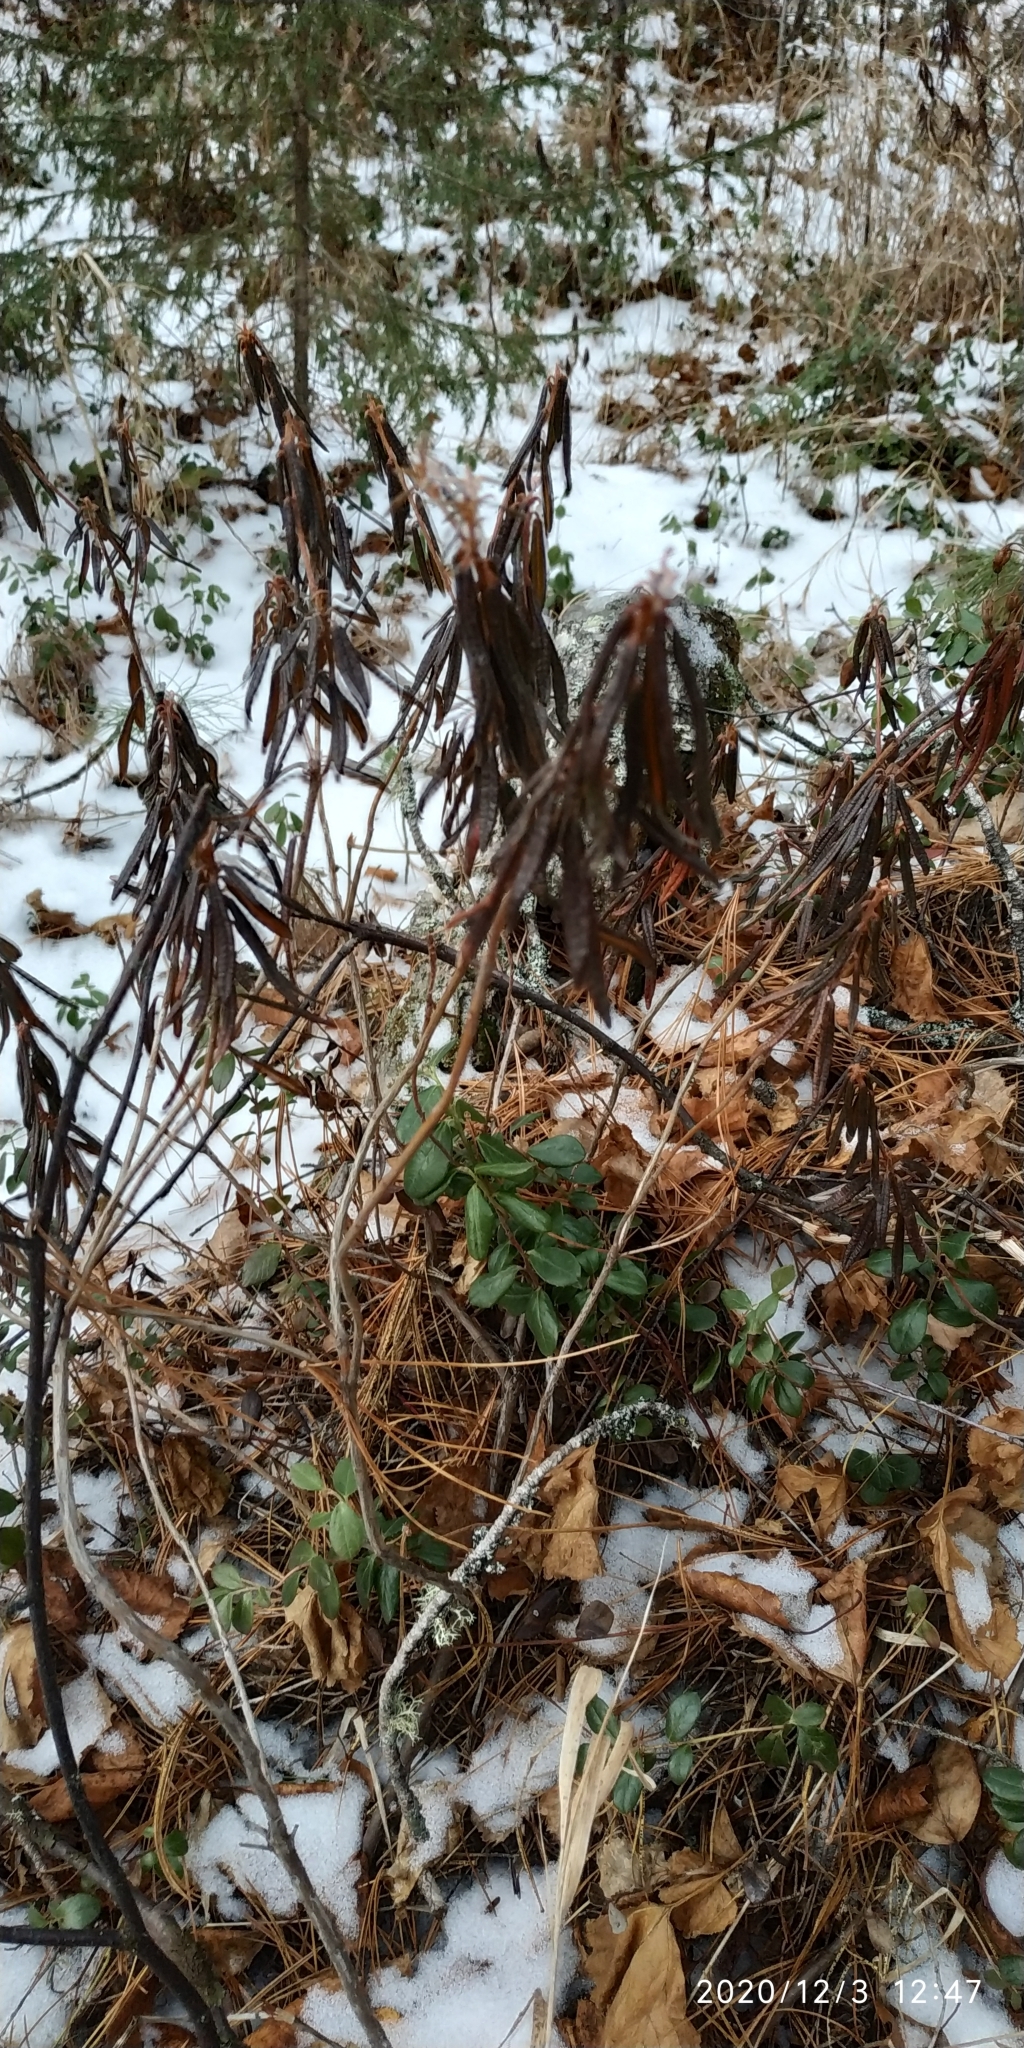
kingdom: Plantae
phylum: Tracheophyta
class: Magnoliopsida
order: Ericales
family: Ericaceae
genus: Rhododendron
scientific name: Rhododendron tomentosum
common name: Marsh labrador tea
